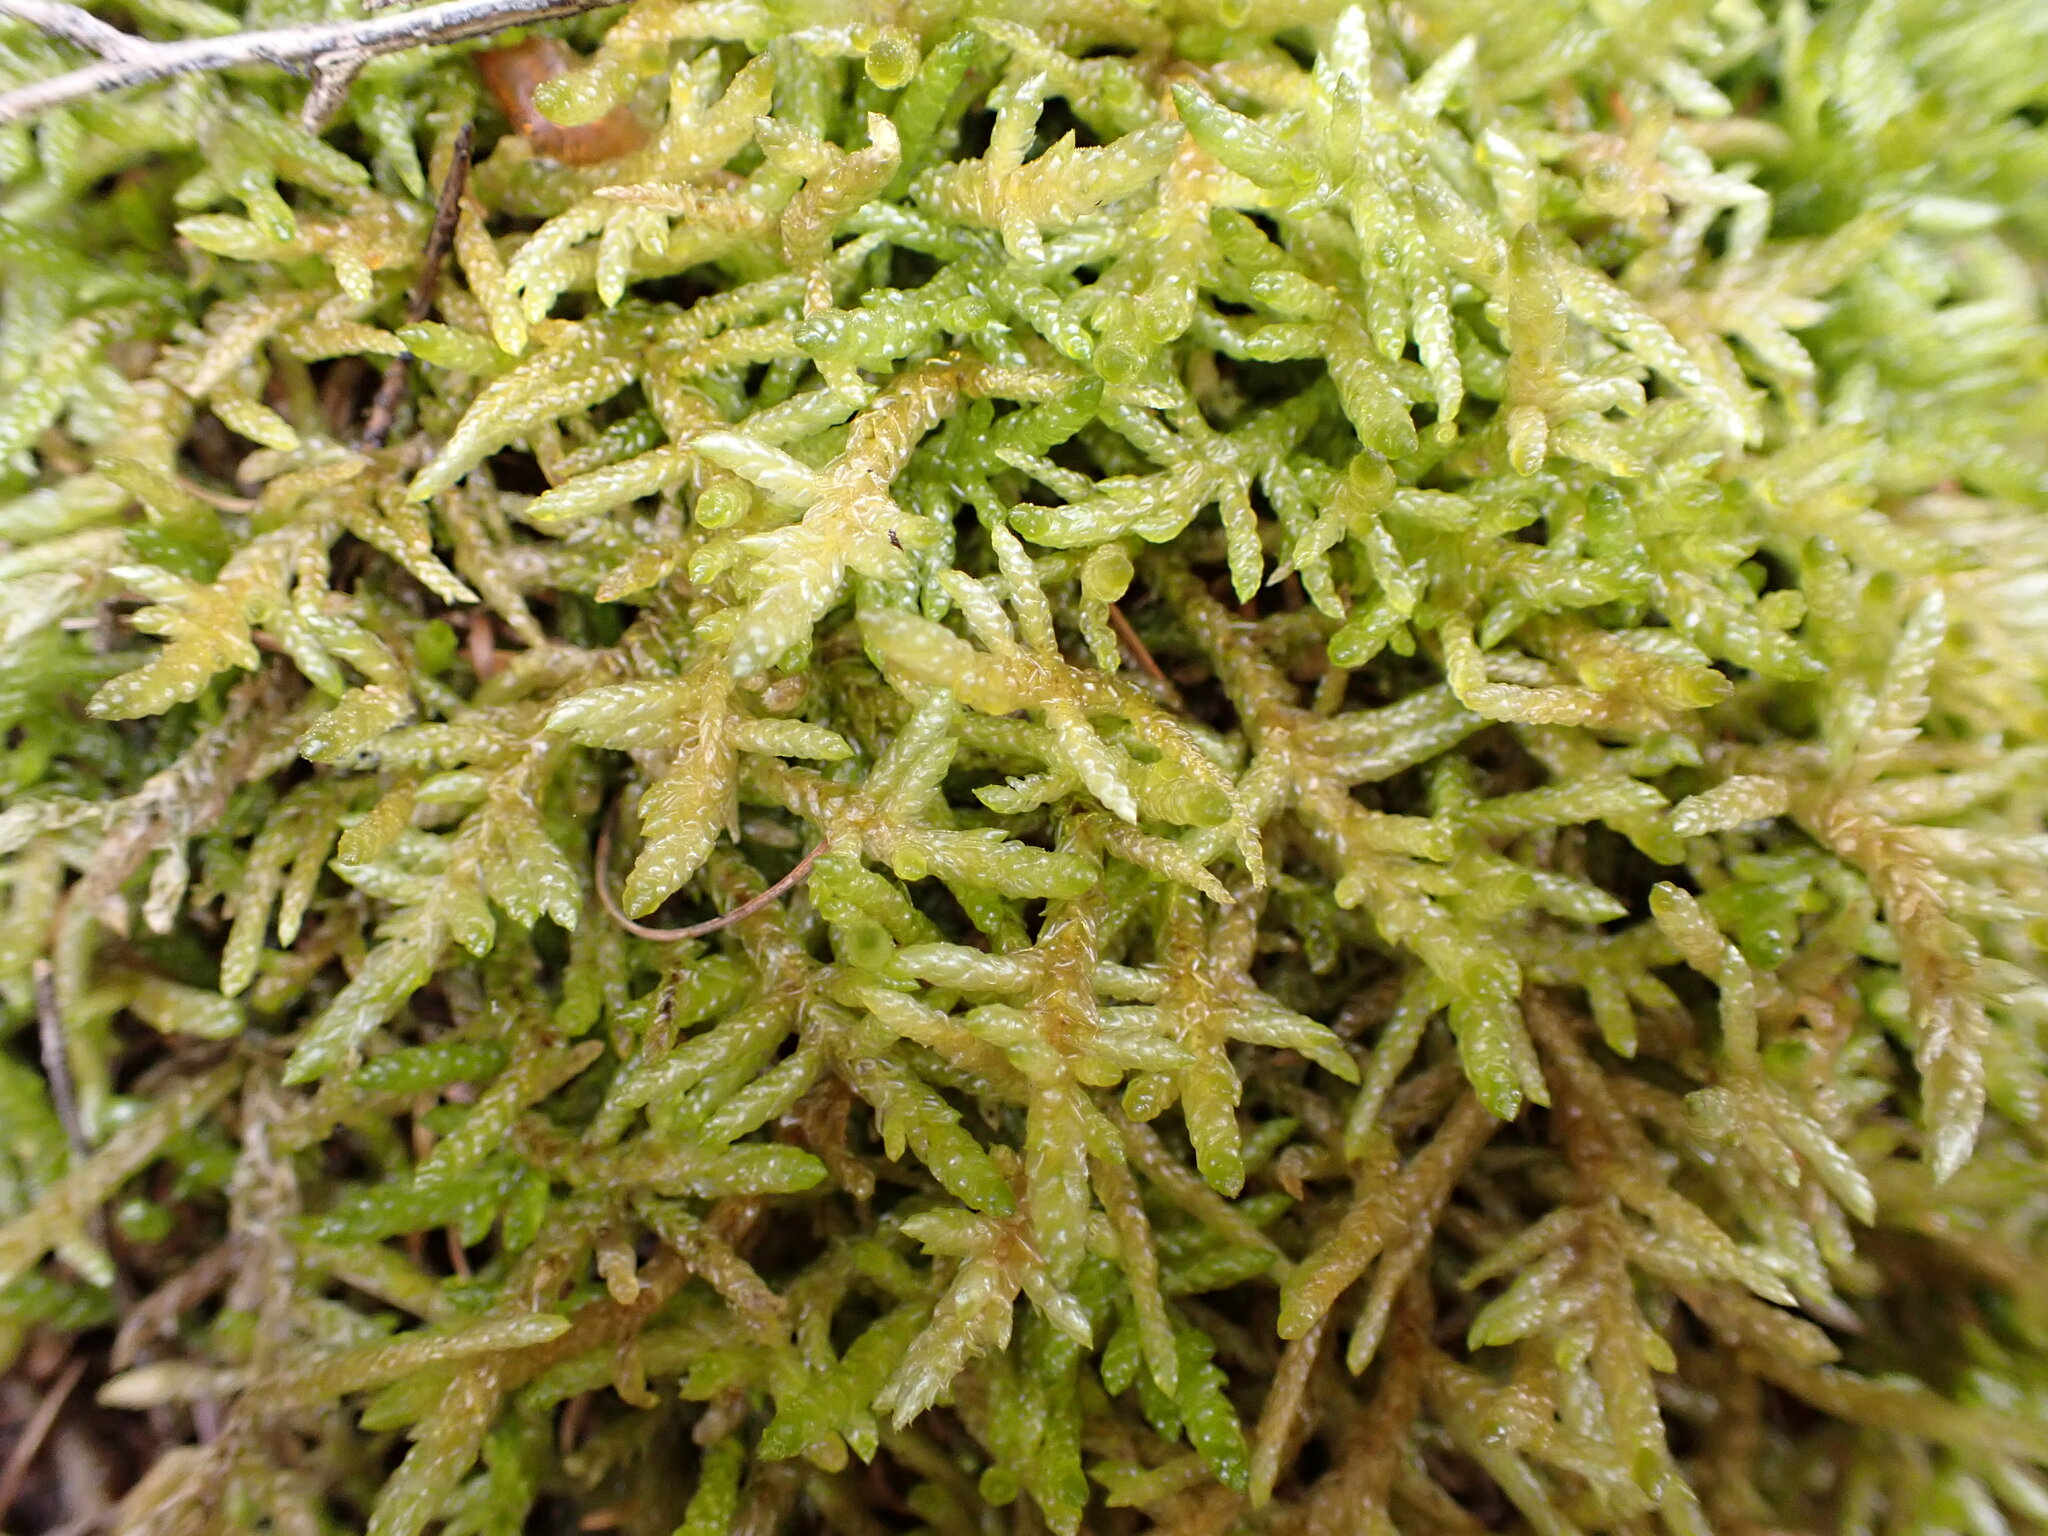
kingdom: Plantae
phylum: Bryophyta
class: Bryopsida
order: Hypnales
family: Brachytheciaceae
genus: Pseudoscleropodium
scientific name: Pseudoscleropodium purum
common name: Neat feather-moss
